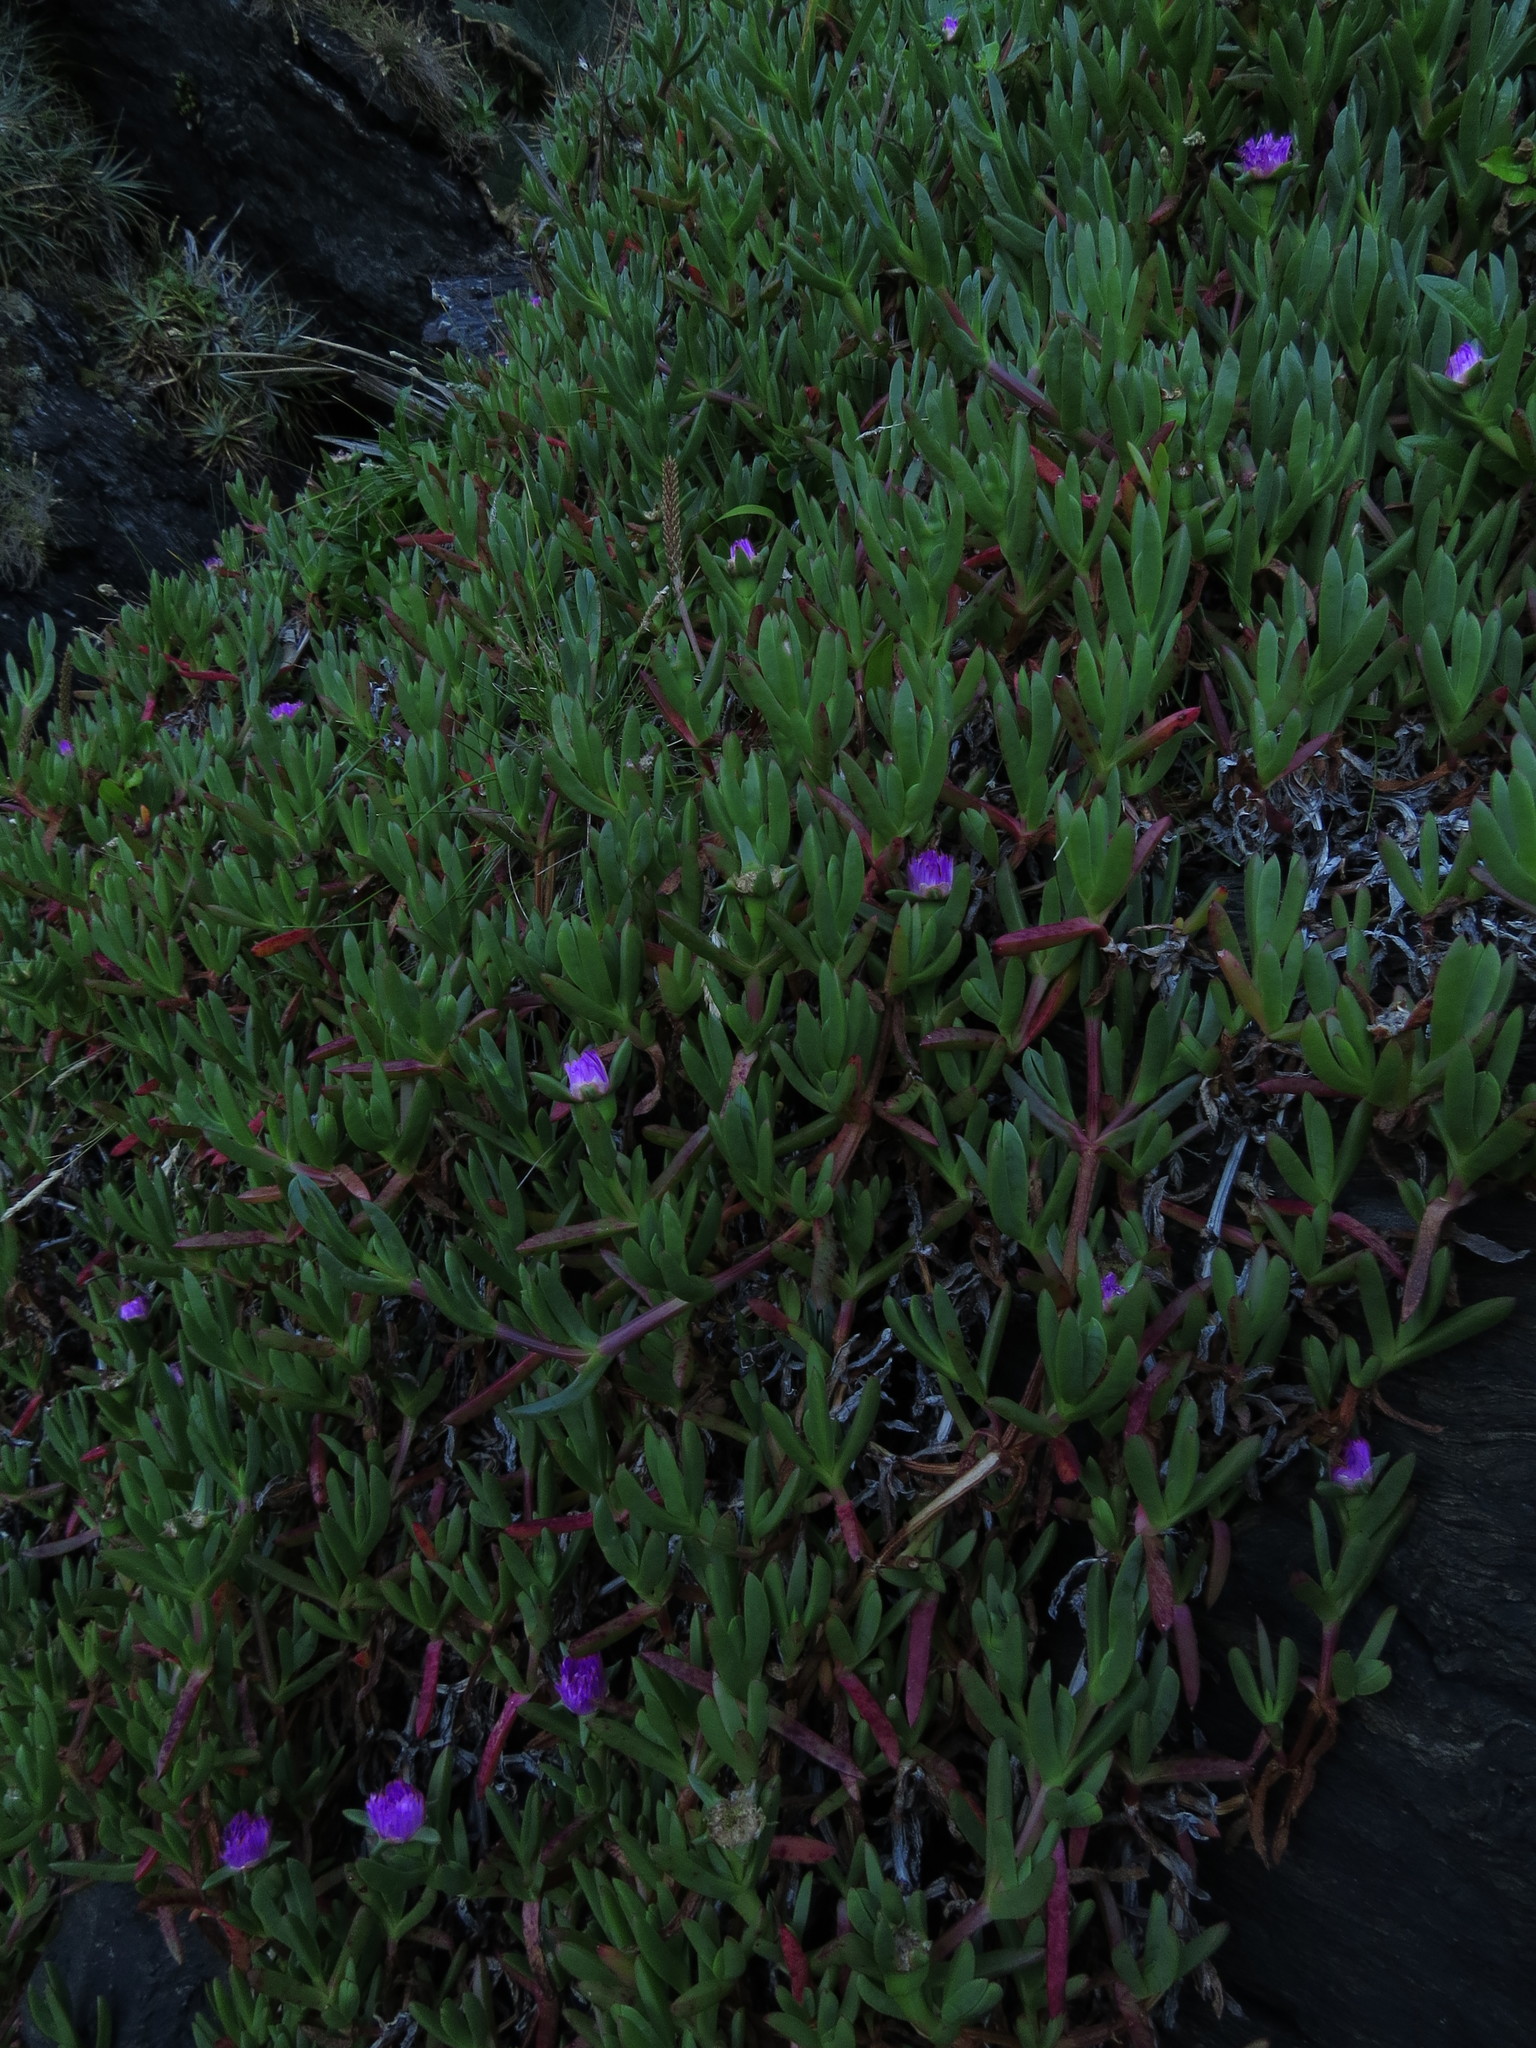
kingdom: Plantae
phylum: Tracheophyta
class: Magnoliopsida
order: Caryophyllales
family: Aizoaceae
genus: Carpobrotus
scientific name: Carpobrotus chilensis
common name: Sea fig
